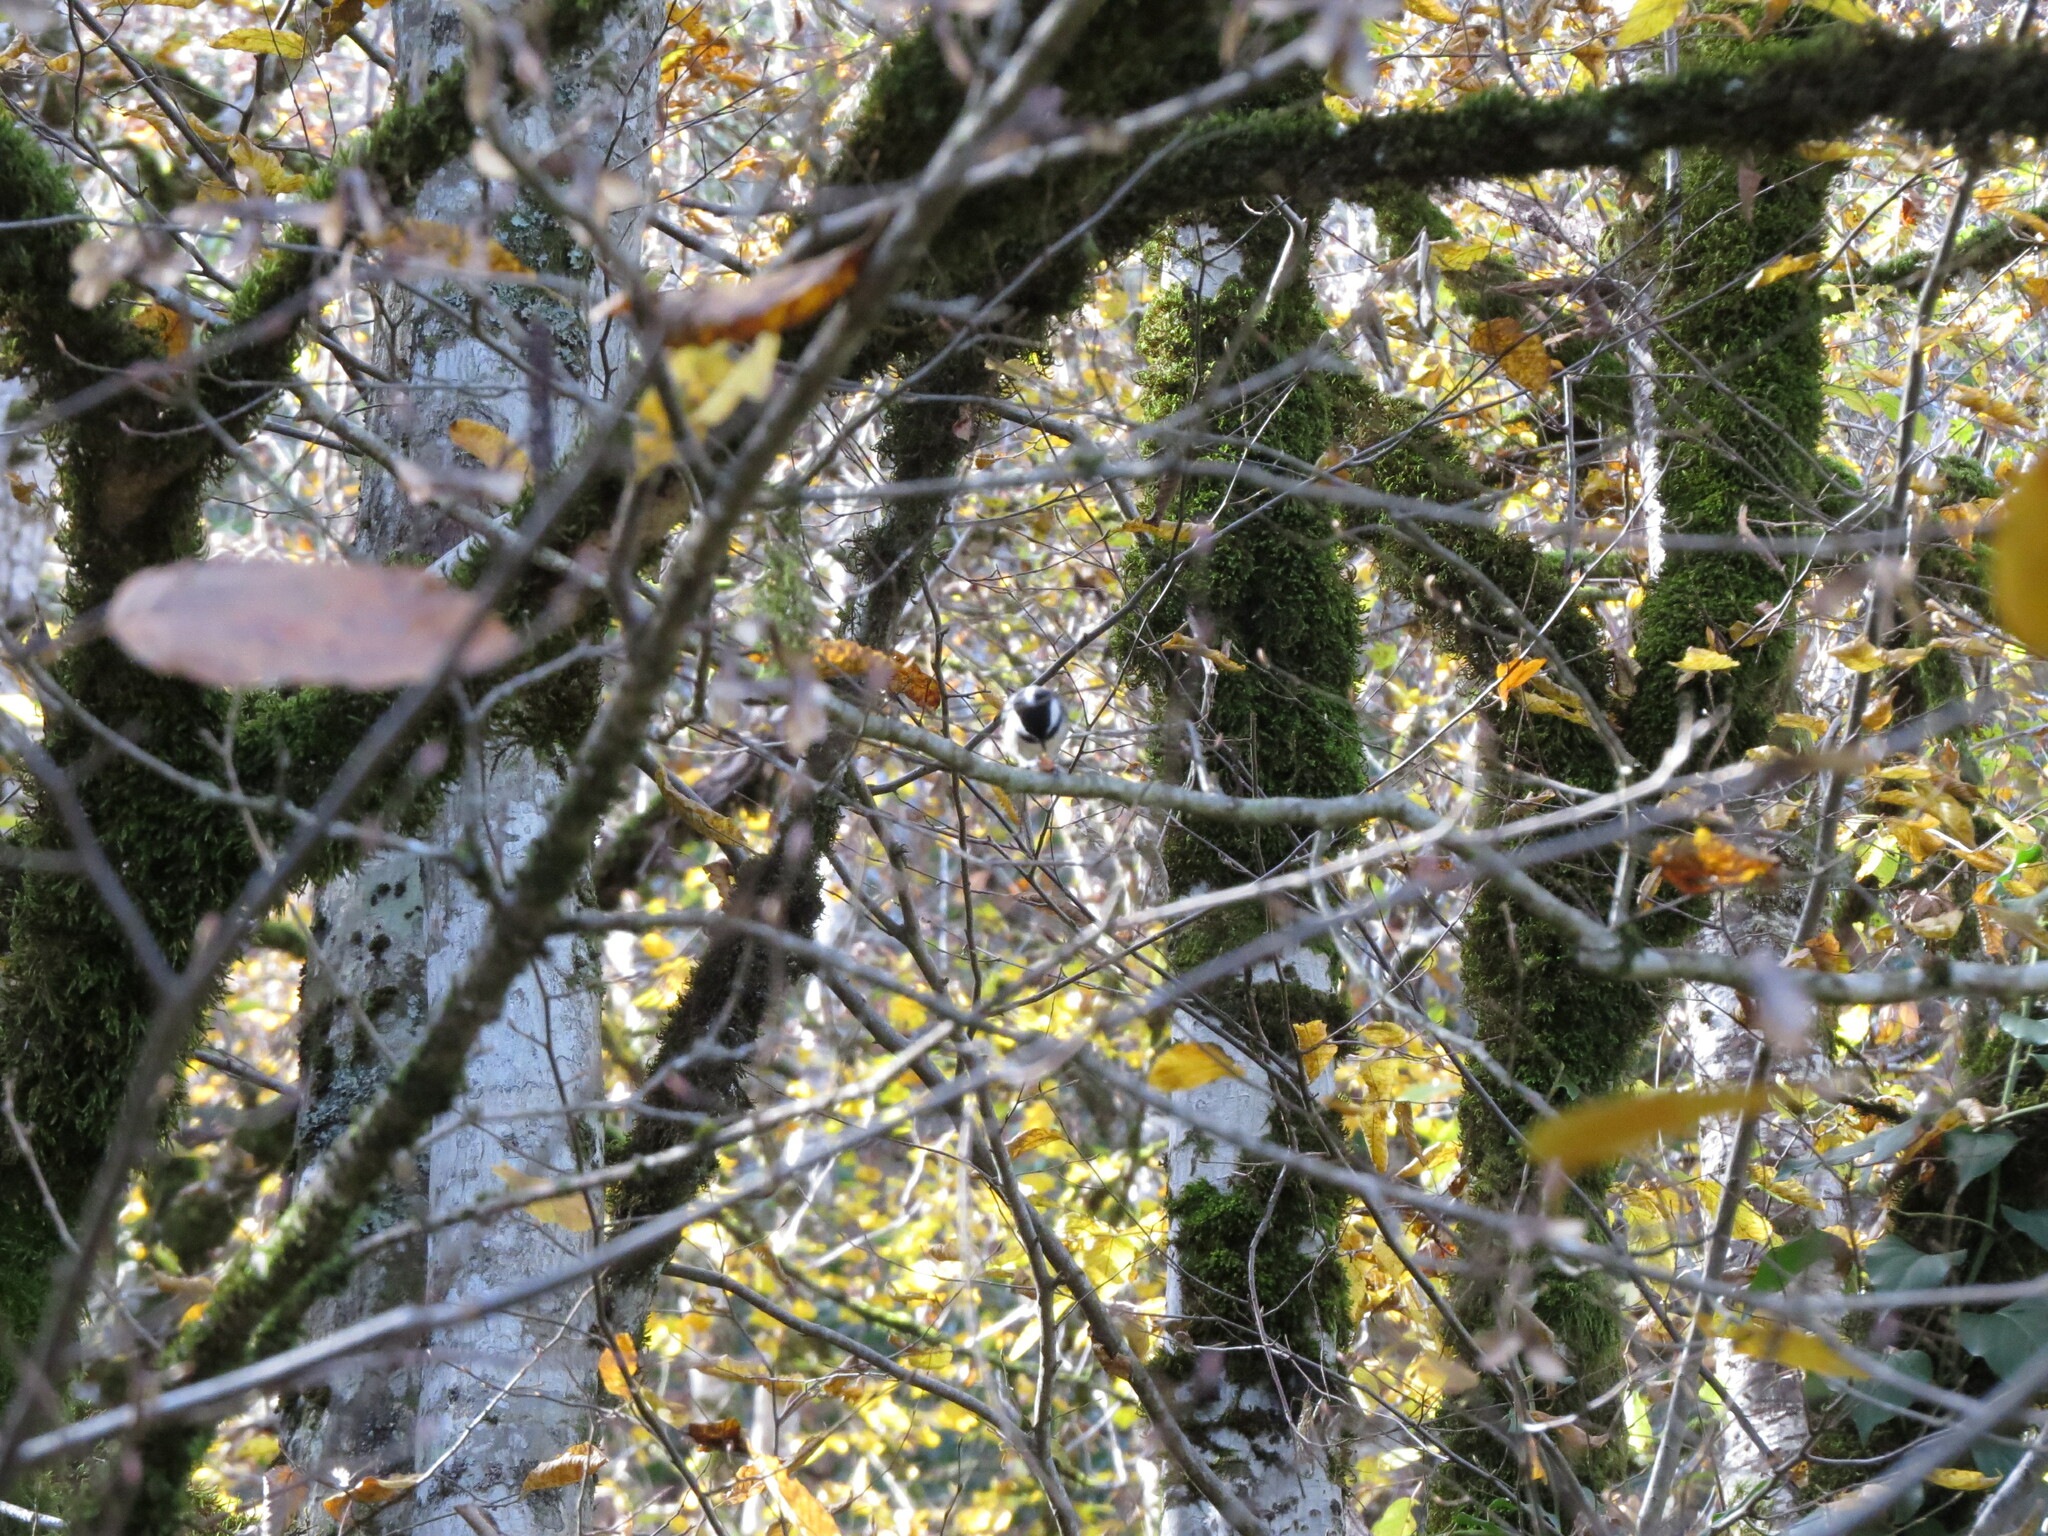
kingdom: Animalia
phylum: Chordata
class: Aves
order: Passeriformes
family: Paridae
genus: Periparus
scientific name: Periparus ater
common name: Coal tit
